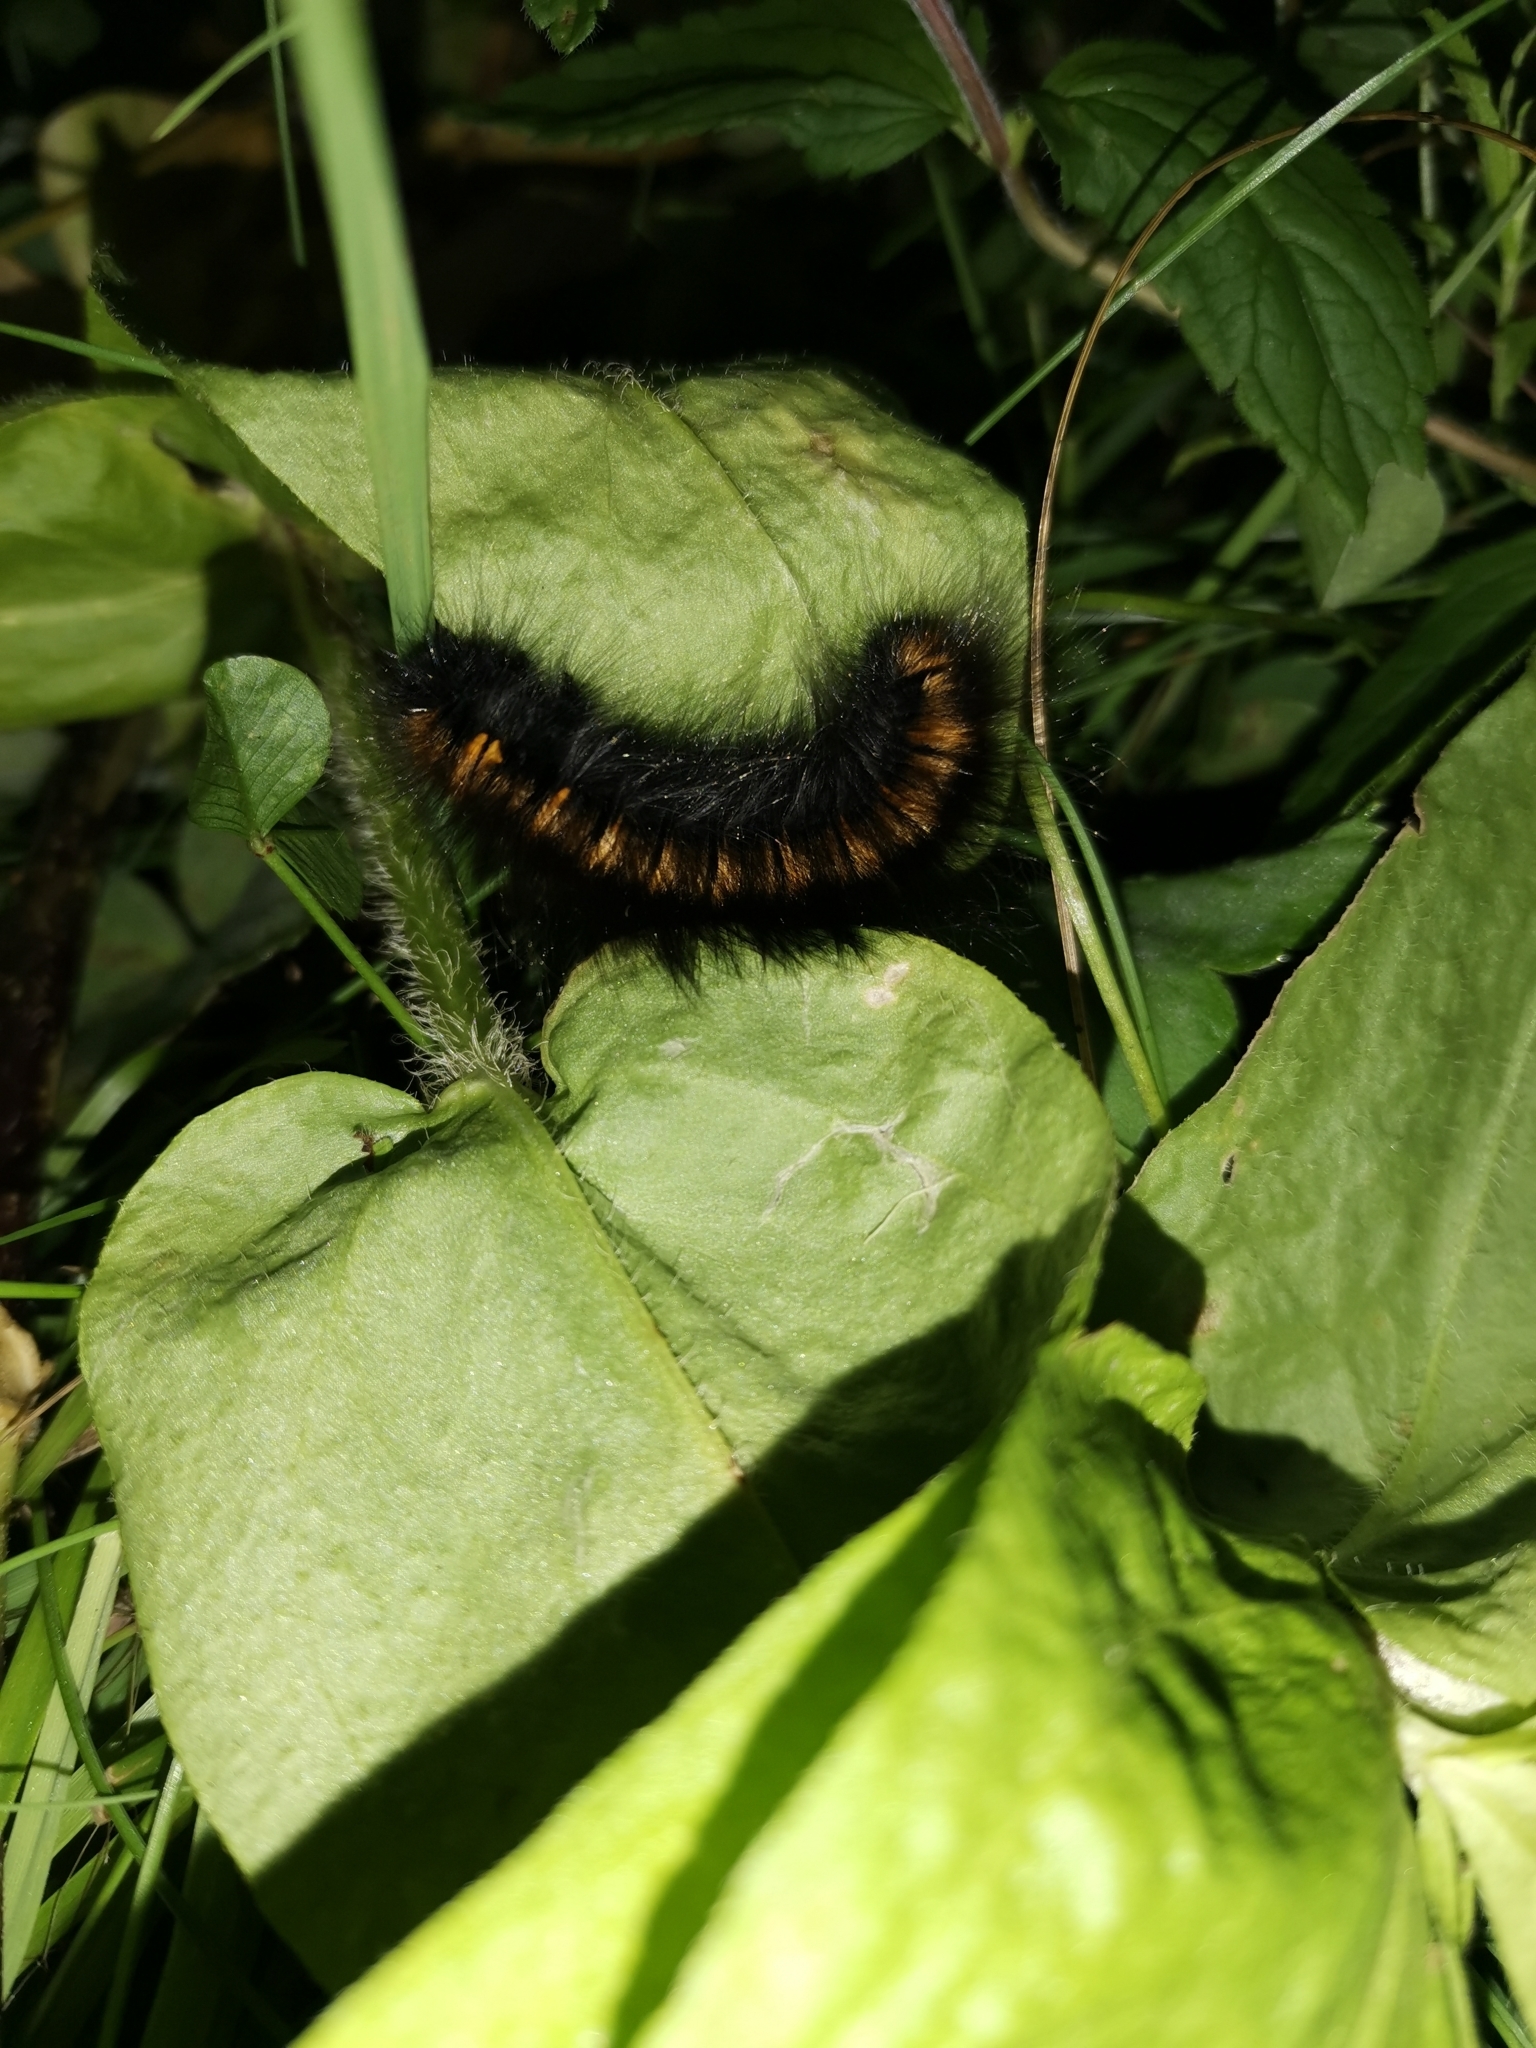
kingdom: Animalia
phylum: Arthropoda
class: Insecta
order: Lepidoptera
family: Lasiocampidae
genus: Macrothylacia
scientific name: Macrothylacia rubi
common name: Fox moth
